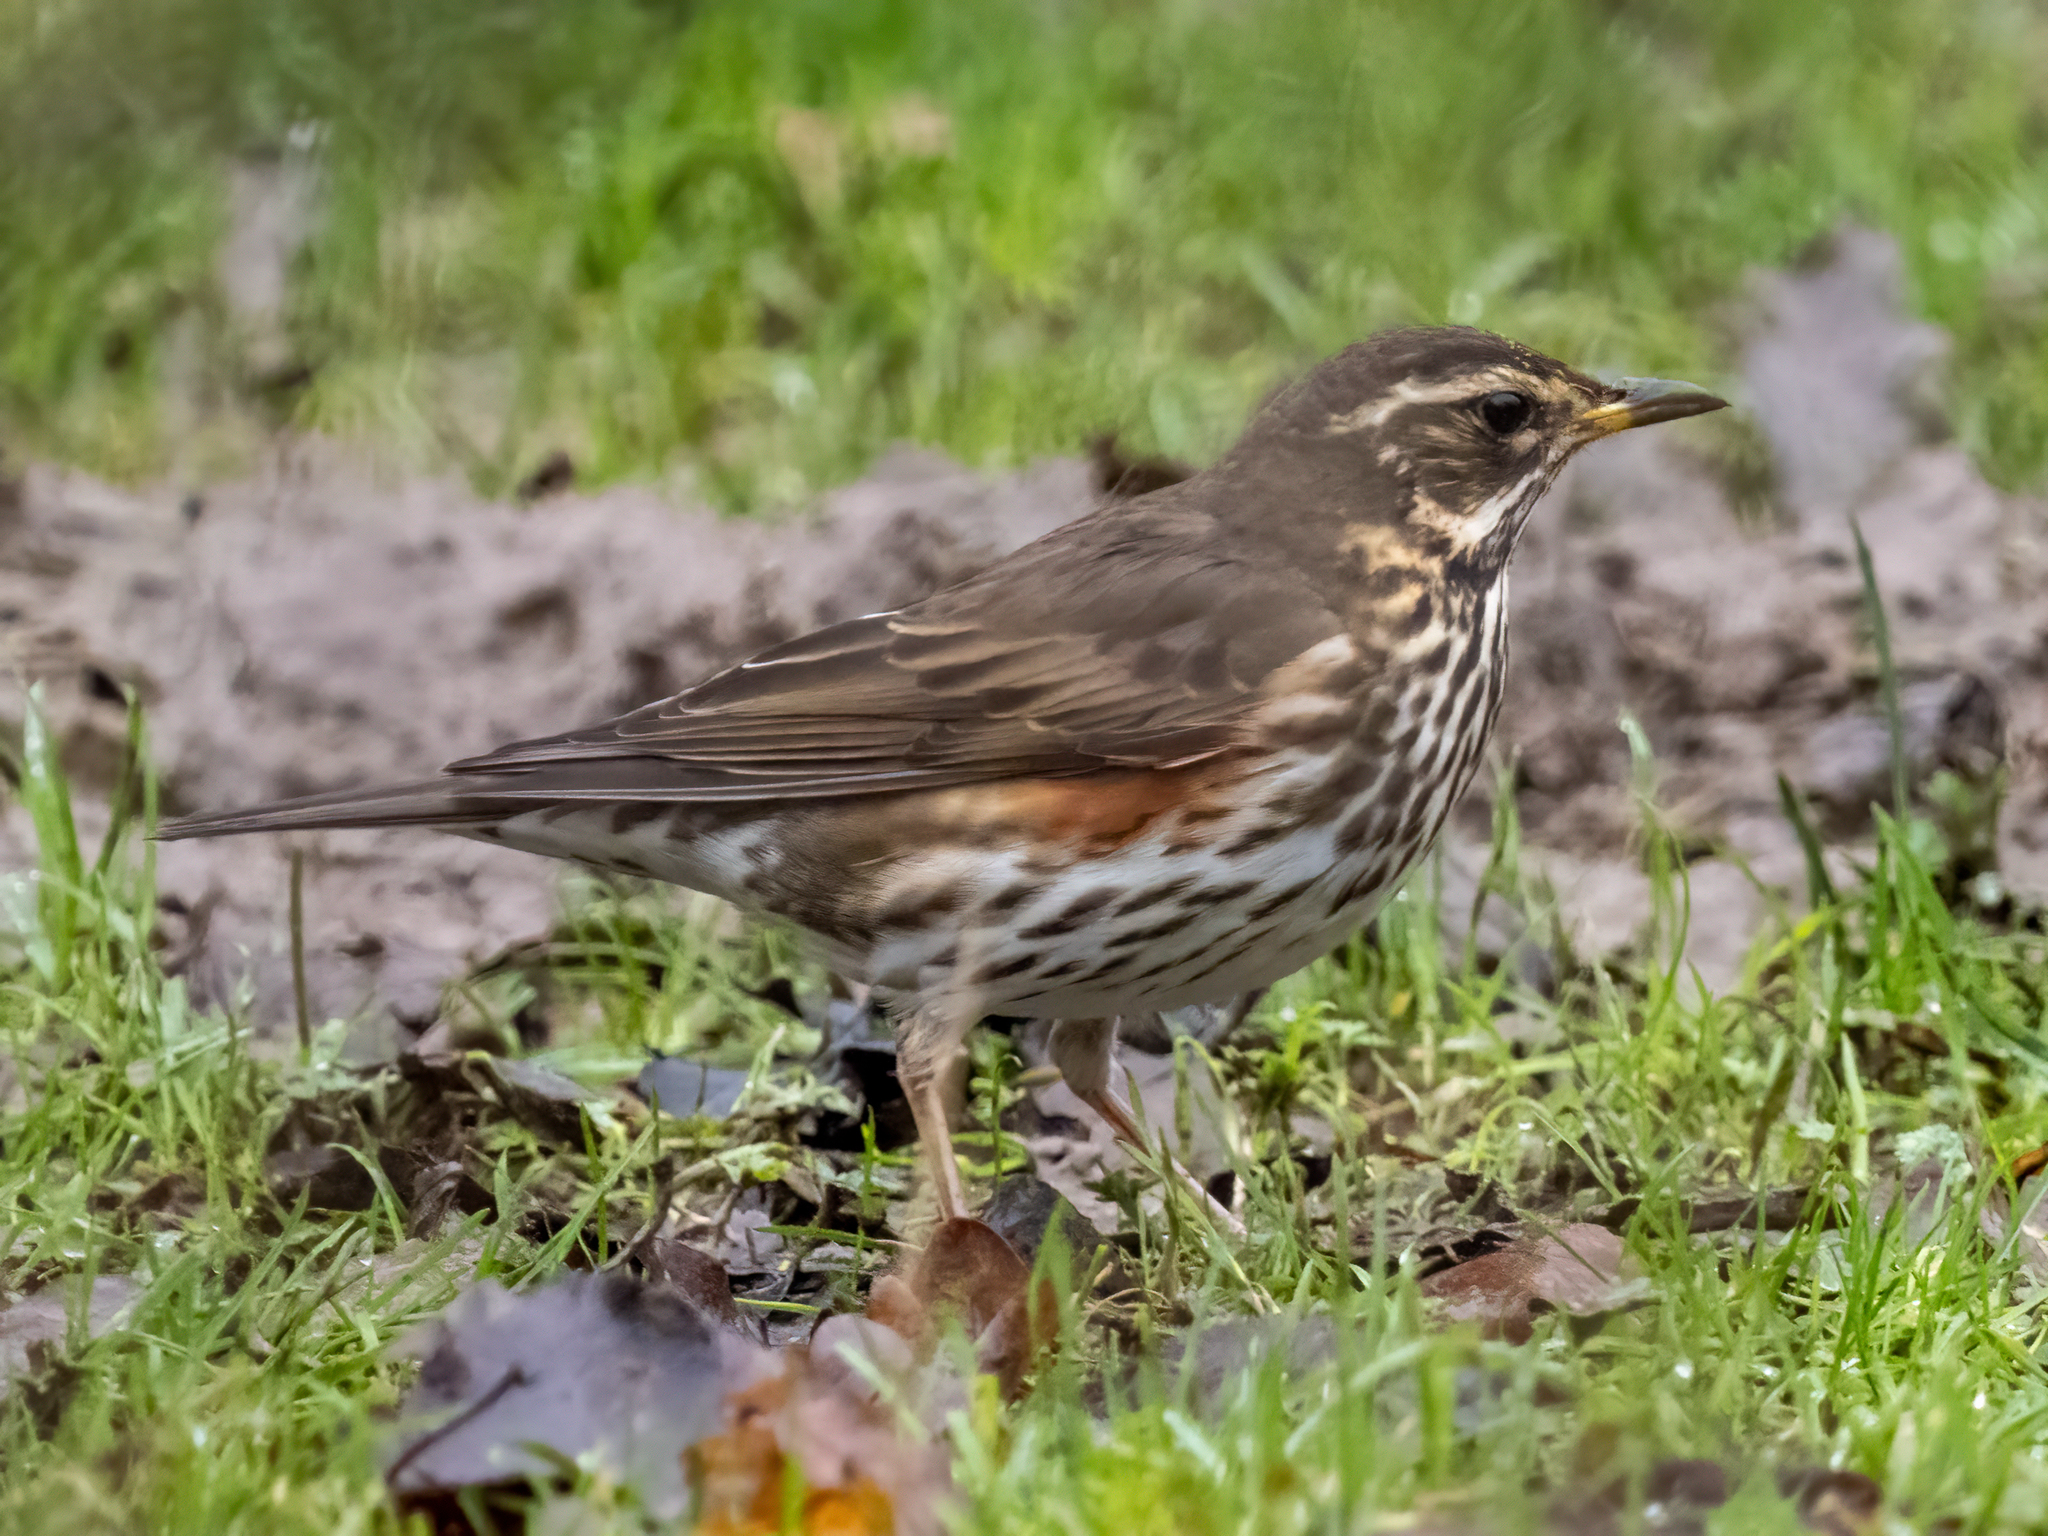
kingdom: Animalia
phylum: Chordata
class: Aves
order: Passeriformes
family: Turdidae
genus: Turdus
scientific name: Turdus iliacus
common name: Redwing
